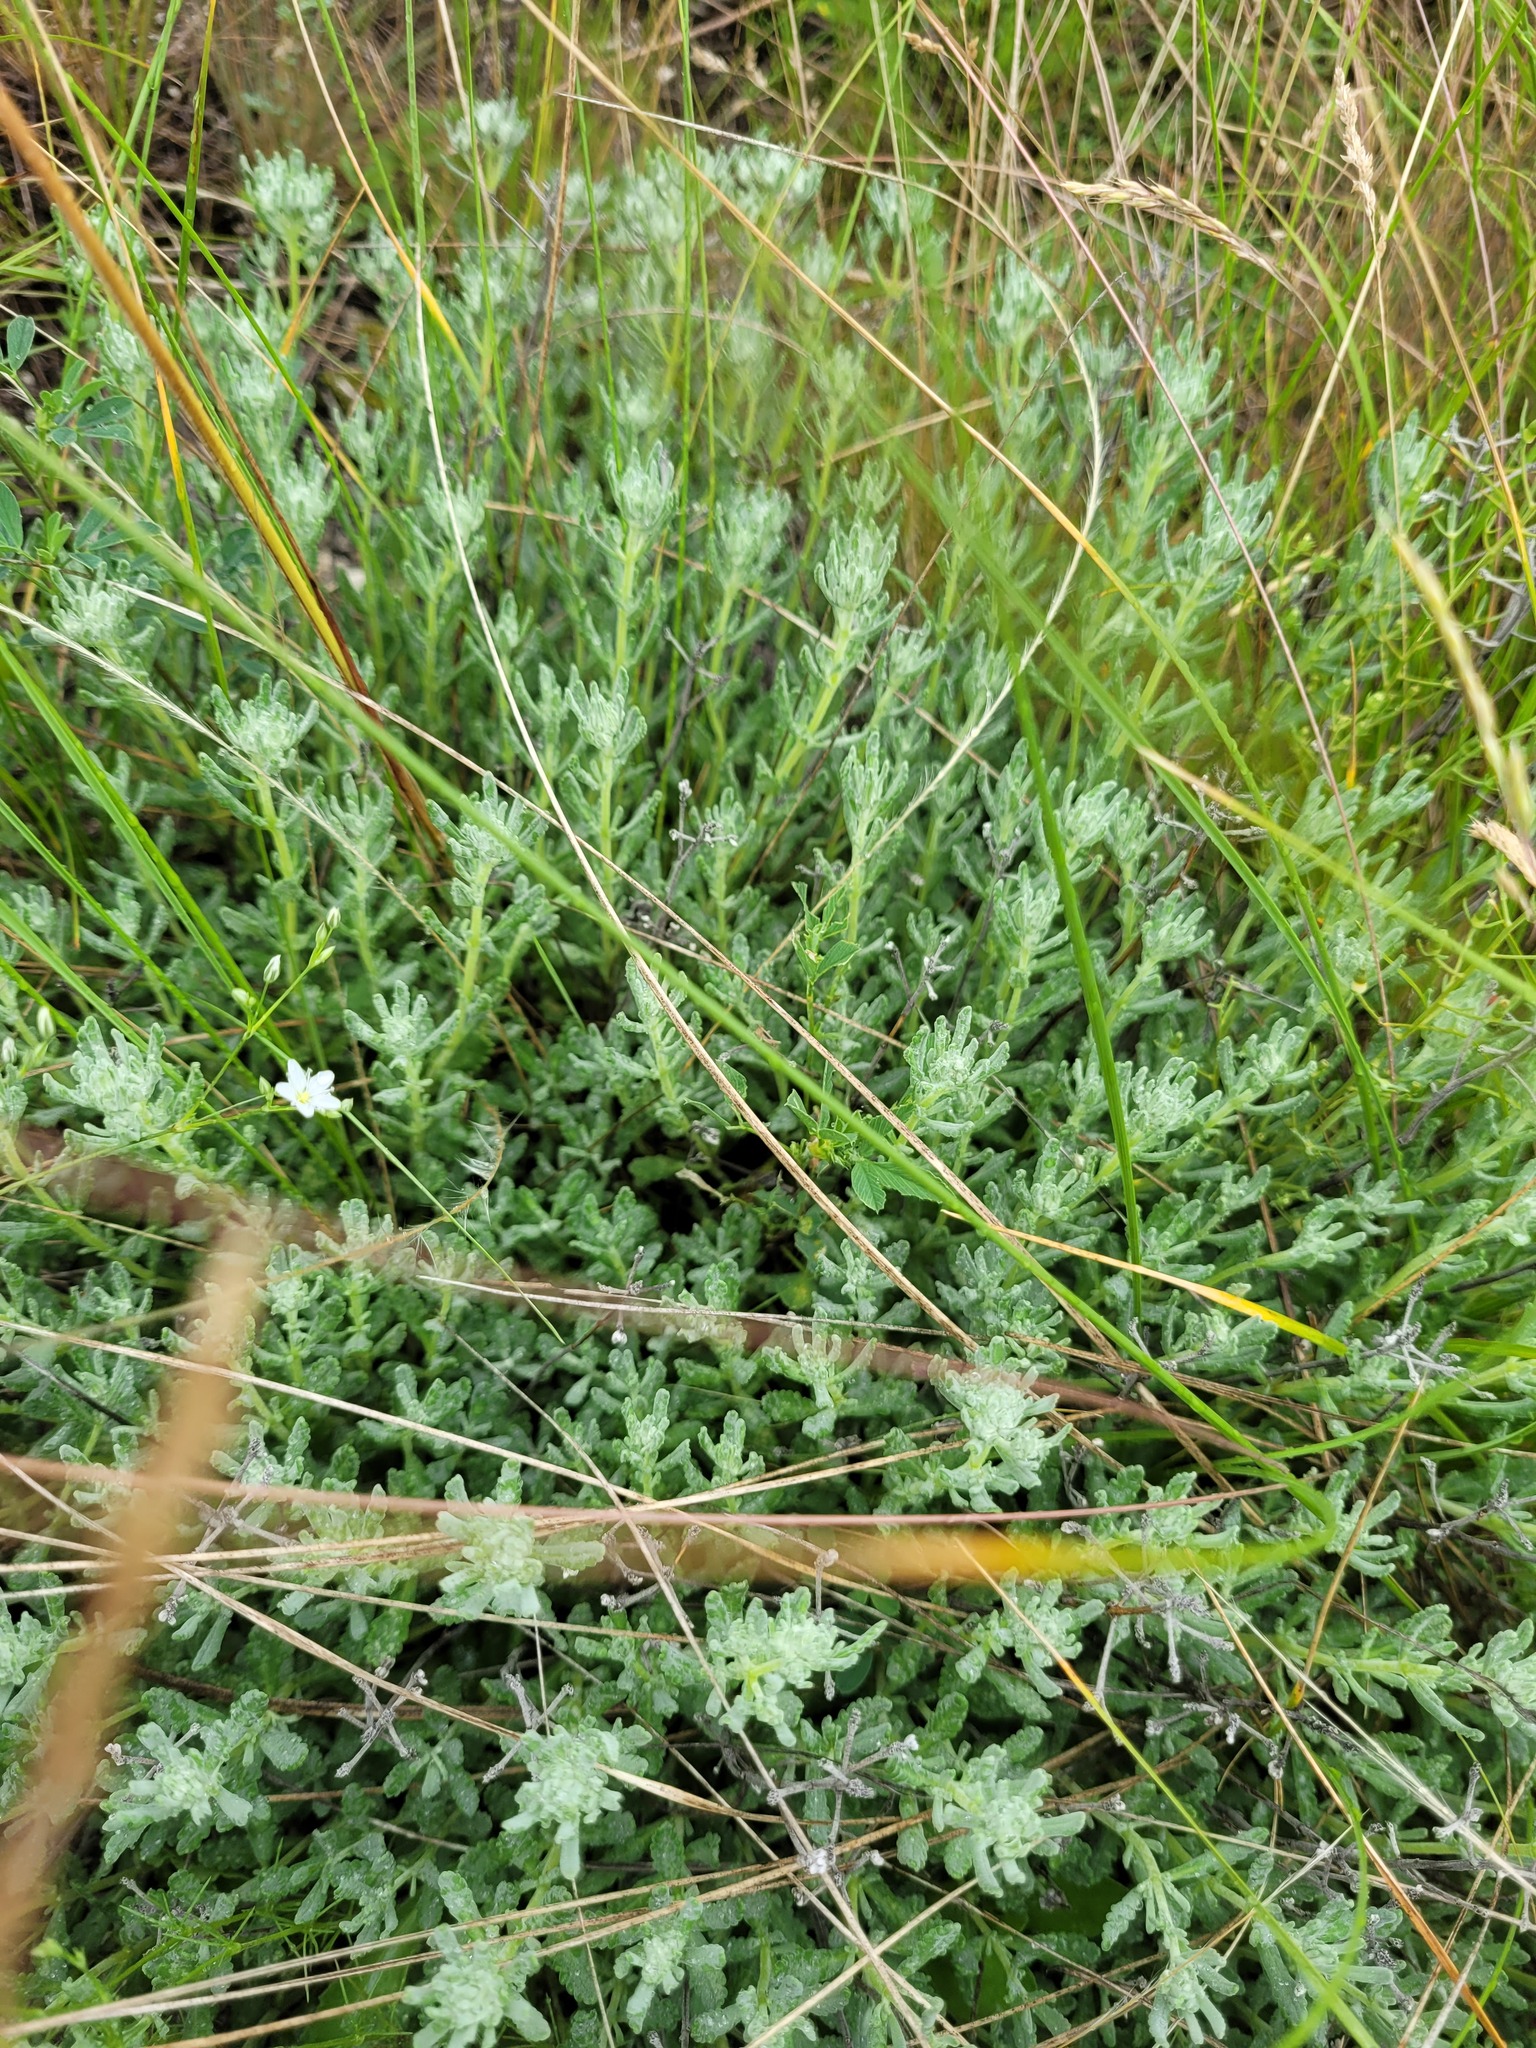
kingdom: Plantae
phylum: Tracheophyta
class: Magnoliopsida
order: Lamiales
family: Lamiaceae
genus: Teucrium
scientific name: Teucrium polium
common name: Poley
